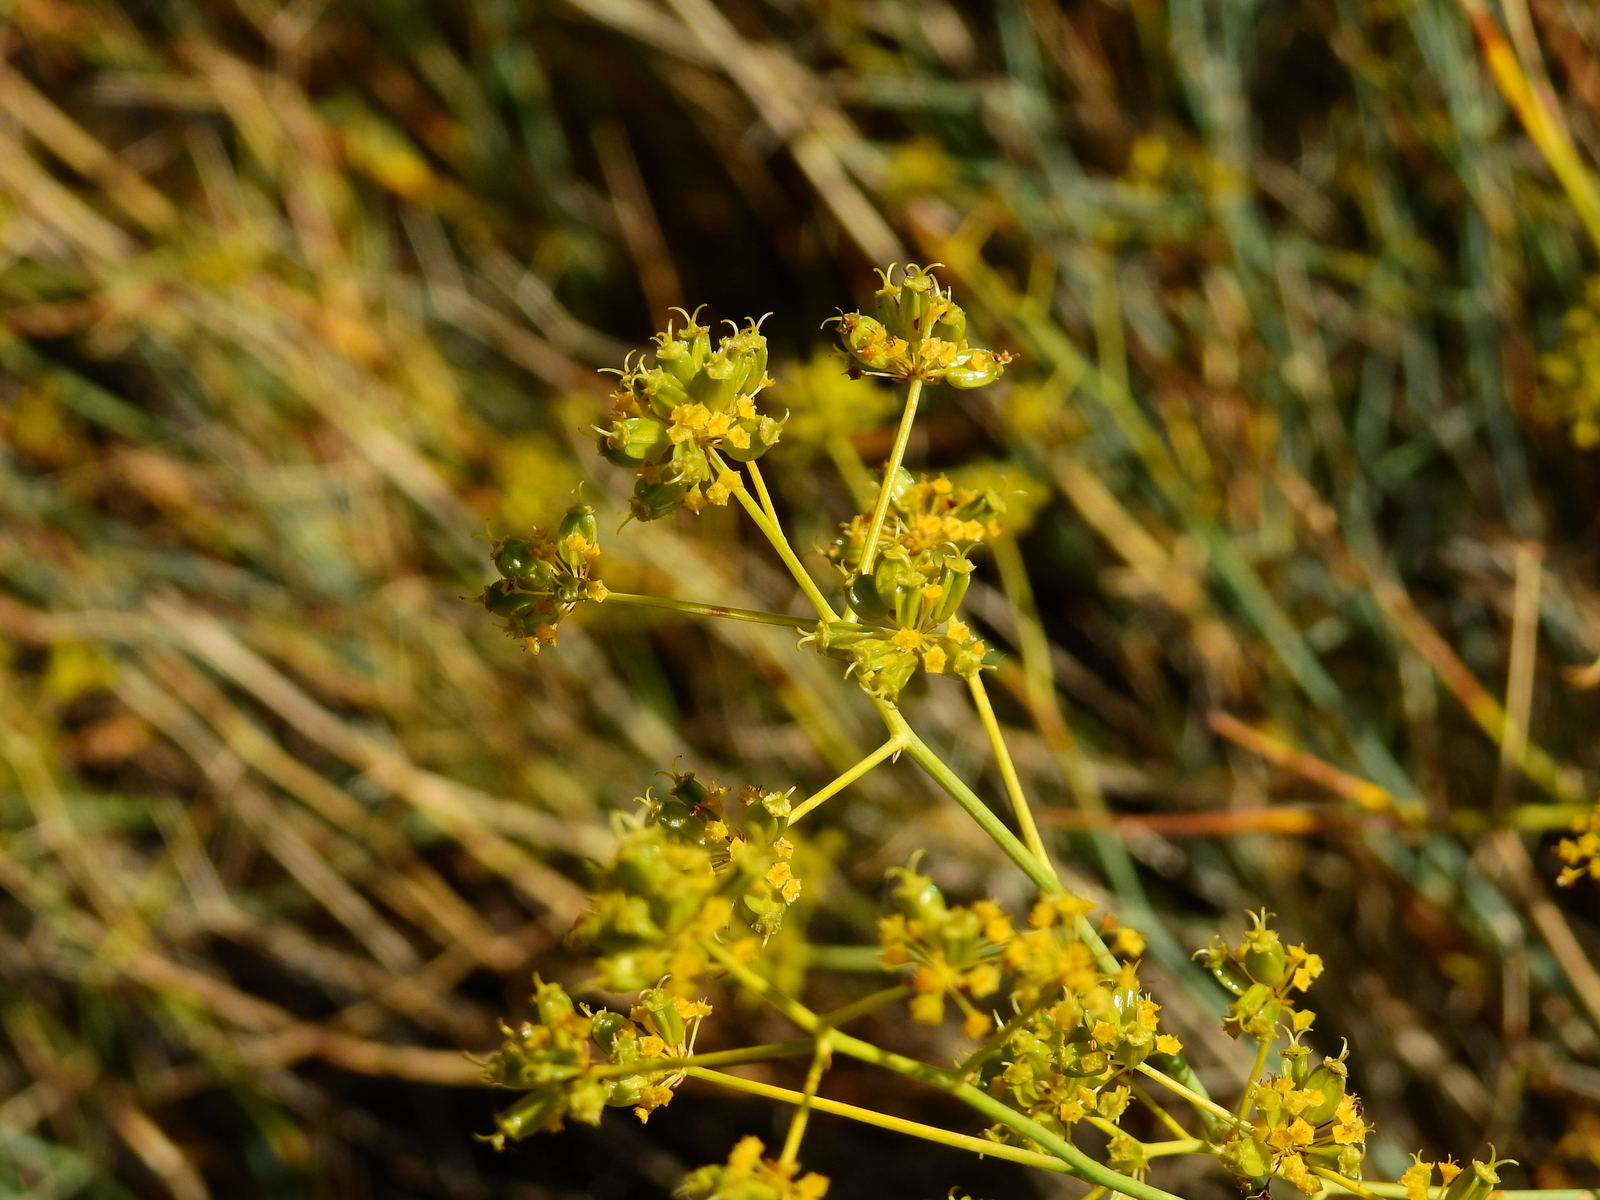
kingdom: Plantae
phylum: Tracheophyta
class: Magnoliopsida
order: Apiales
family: Apiaceae
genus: Gymnophyton
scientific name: Gymnophyton polycephalum
